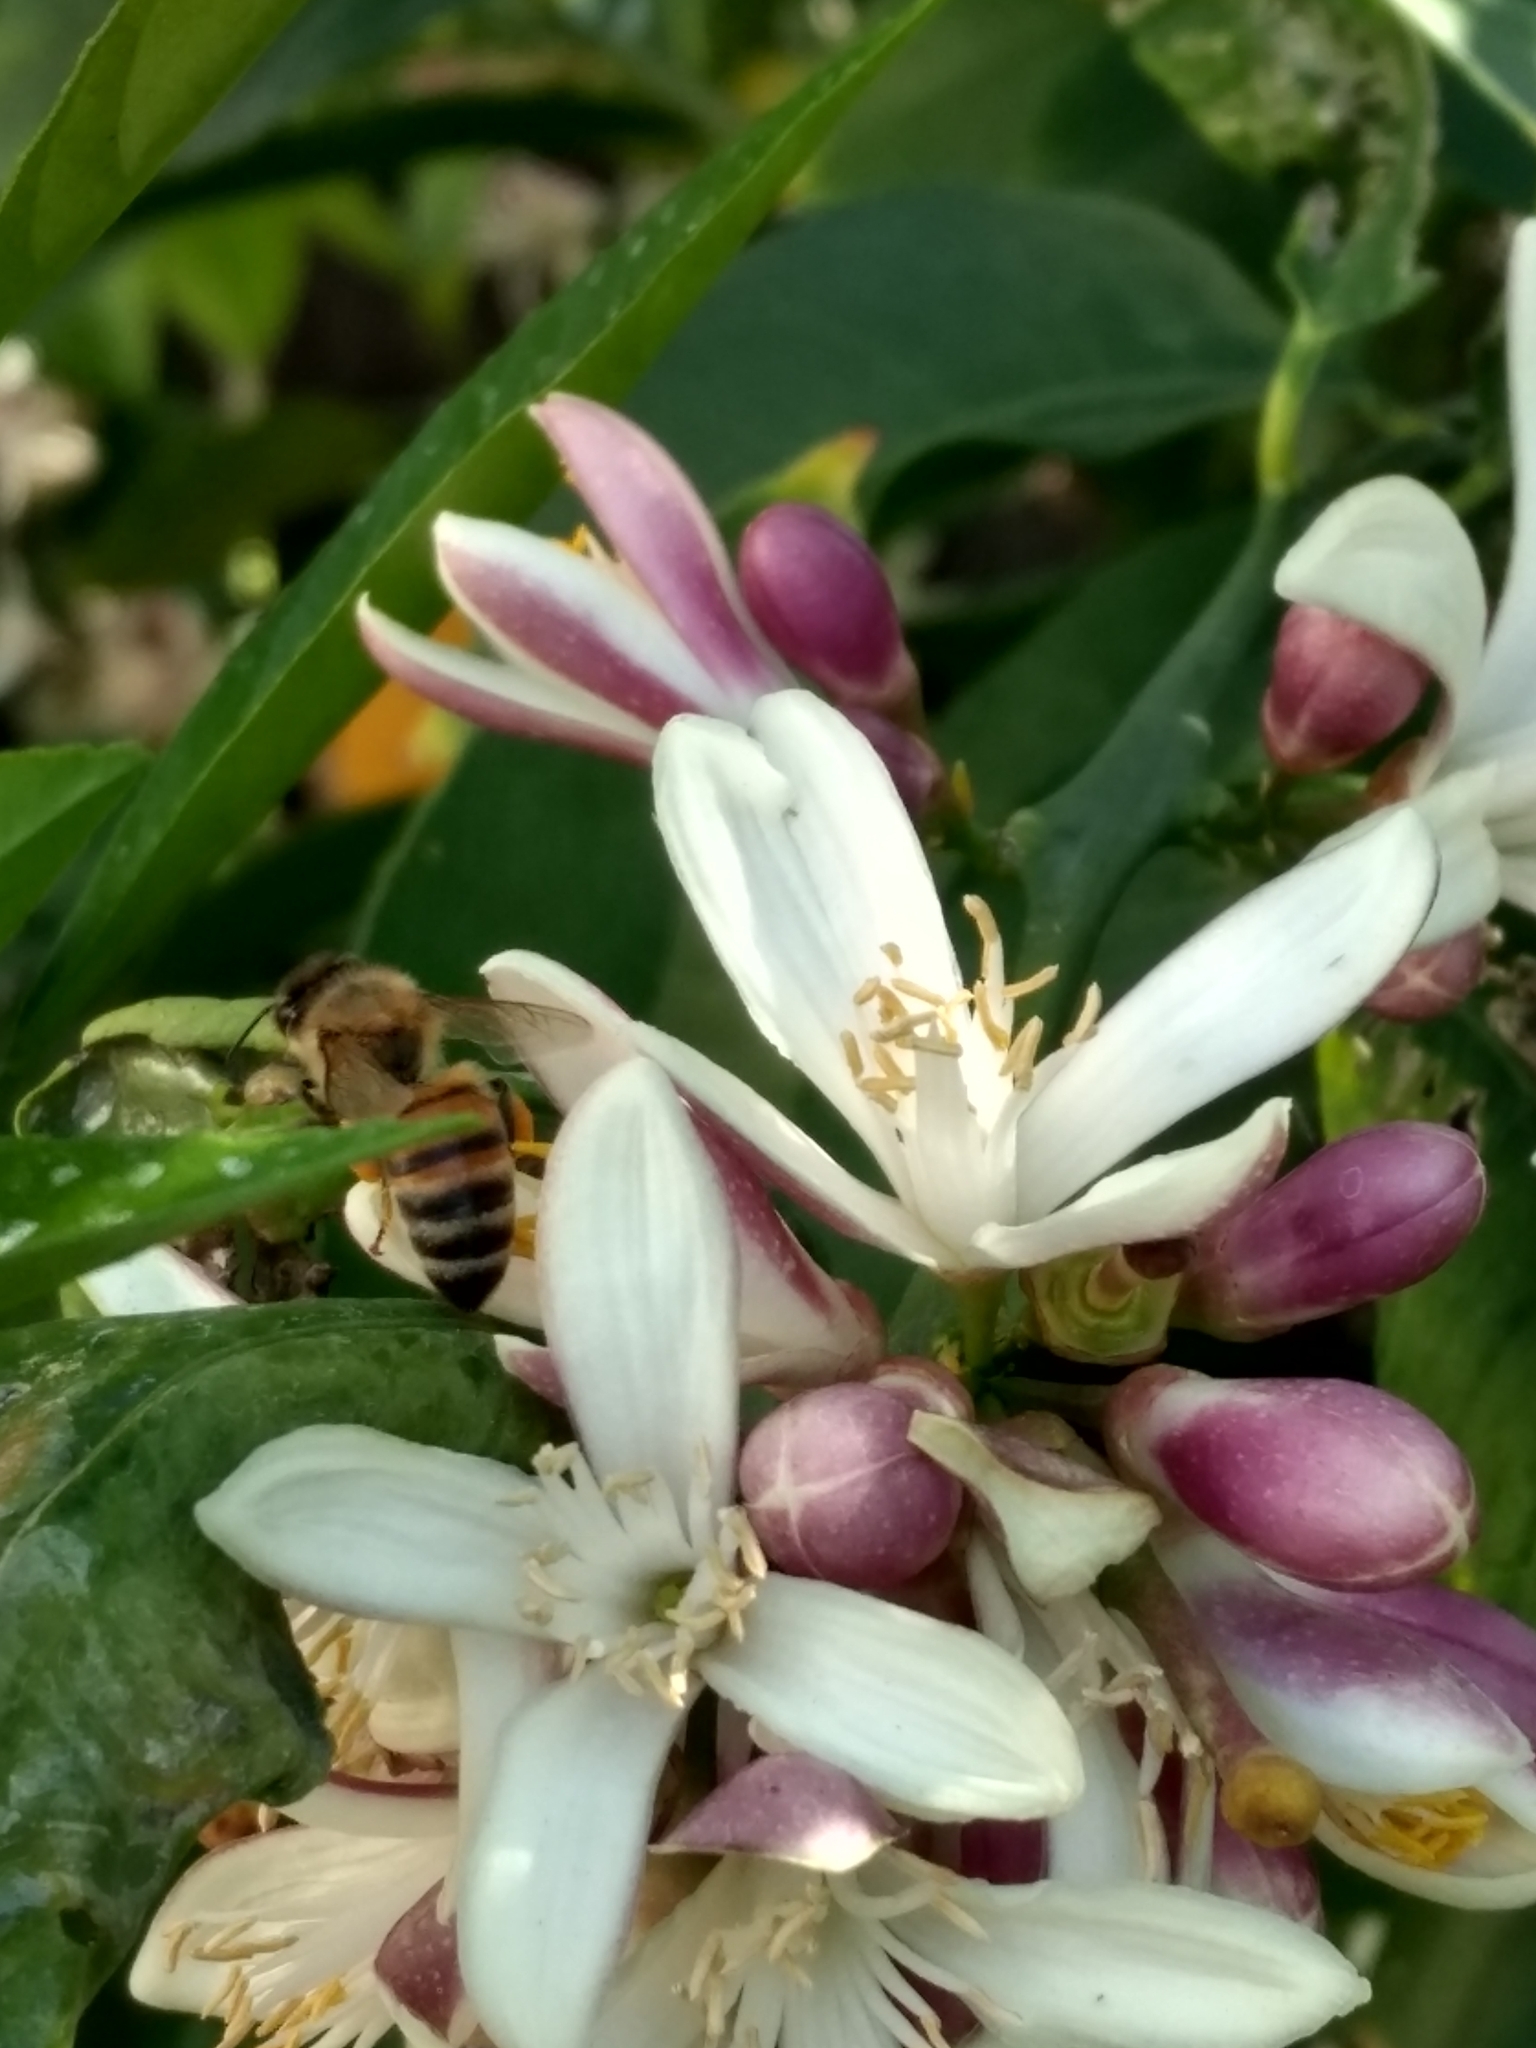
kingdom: Animalia
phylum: Arthropoda
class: Insecta
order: Hymenoptera
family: Apidae
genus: Apis
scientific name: Apis mellifera
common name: Honey bee
